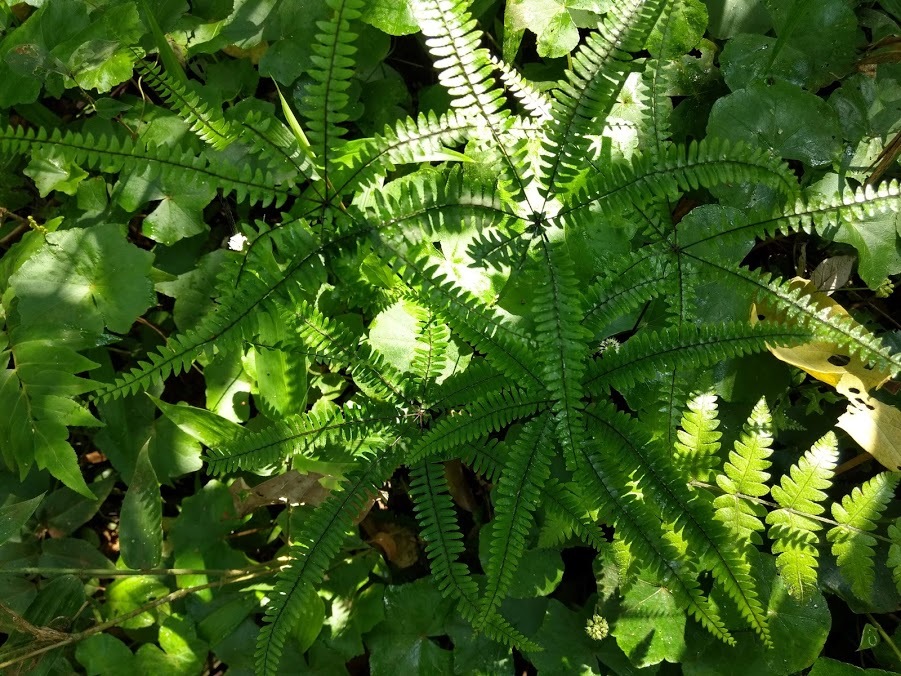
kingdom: Plantae
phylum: Tracheophyta
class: Polypodiopsida
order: Polypodiales
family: Pteridaceae
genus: Adiantopsis
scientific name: Adiantopsis radiata
